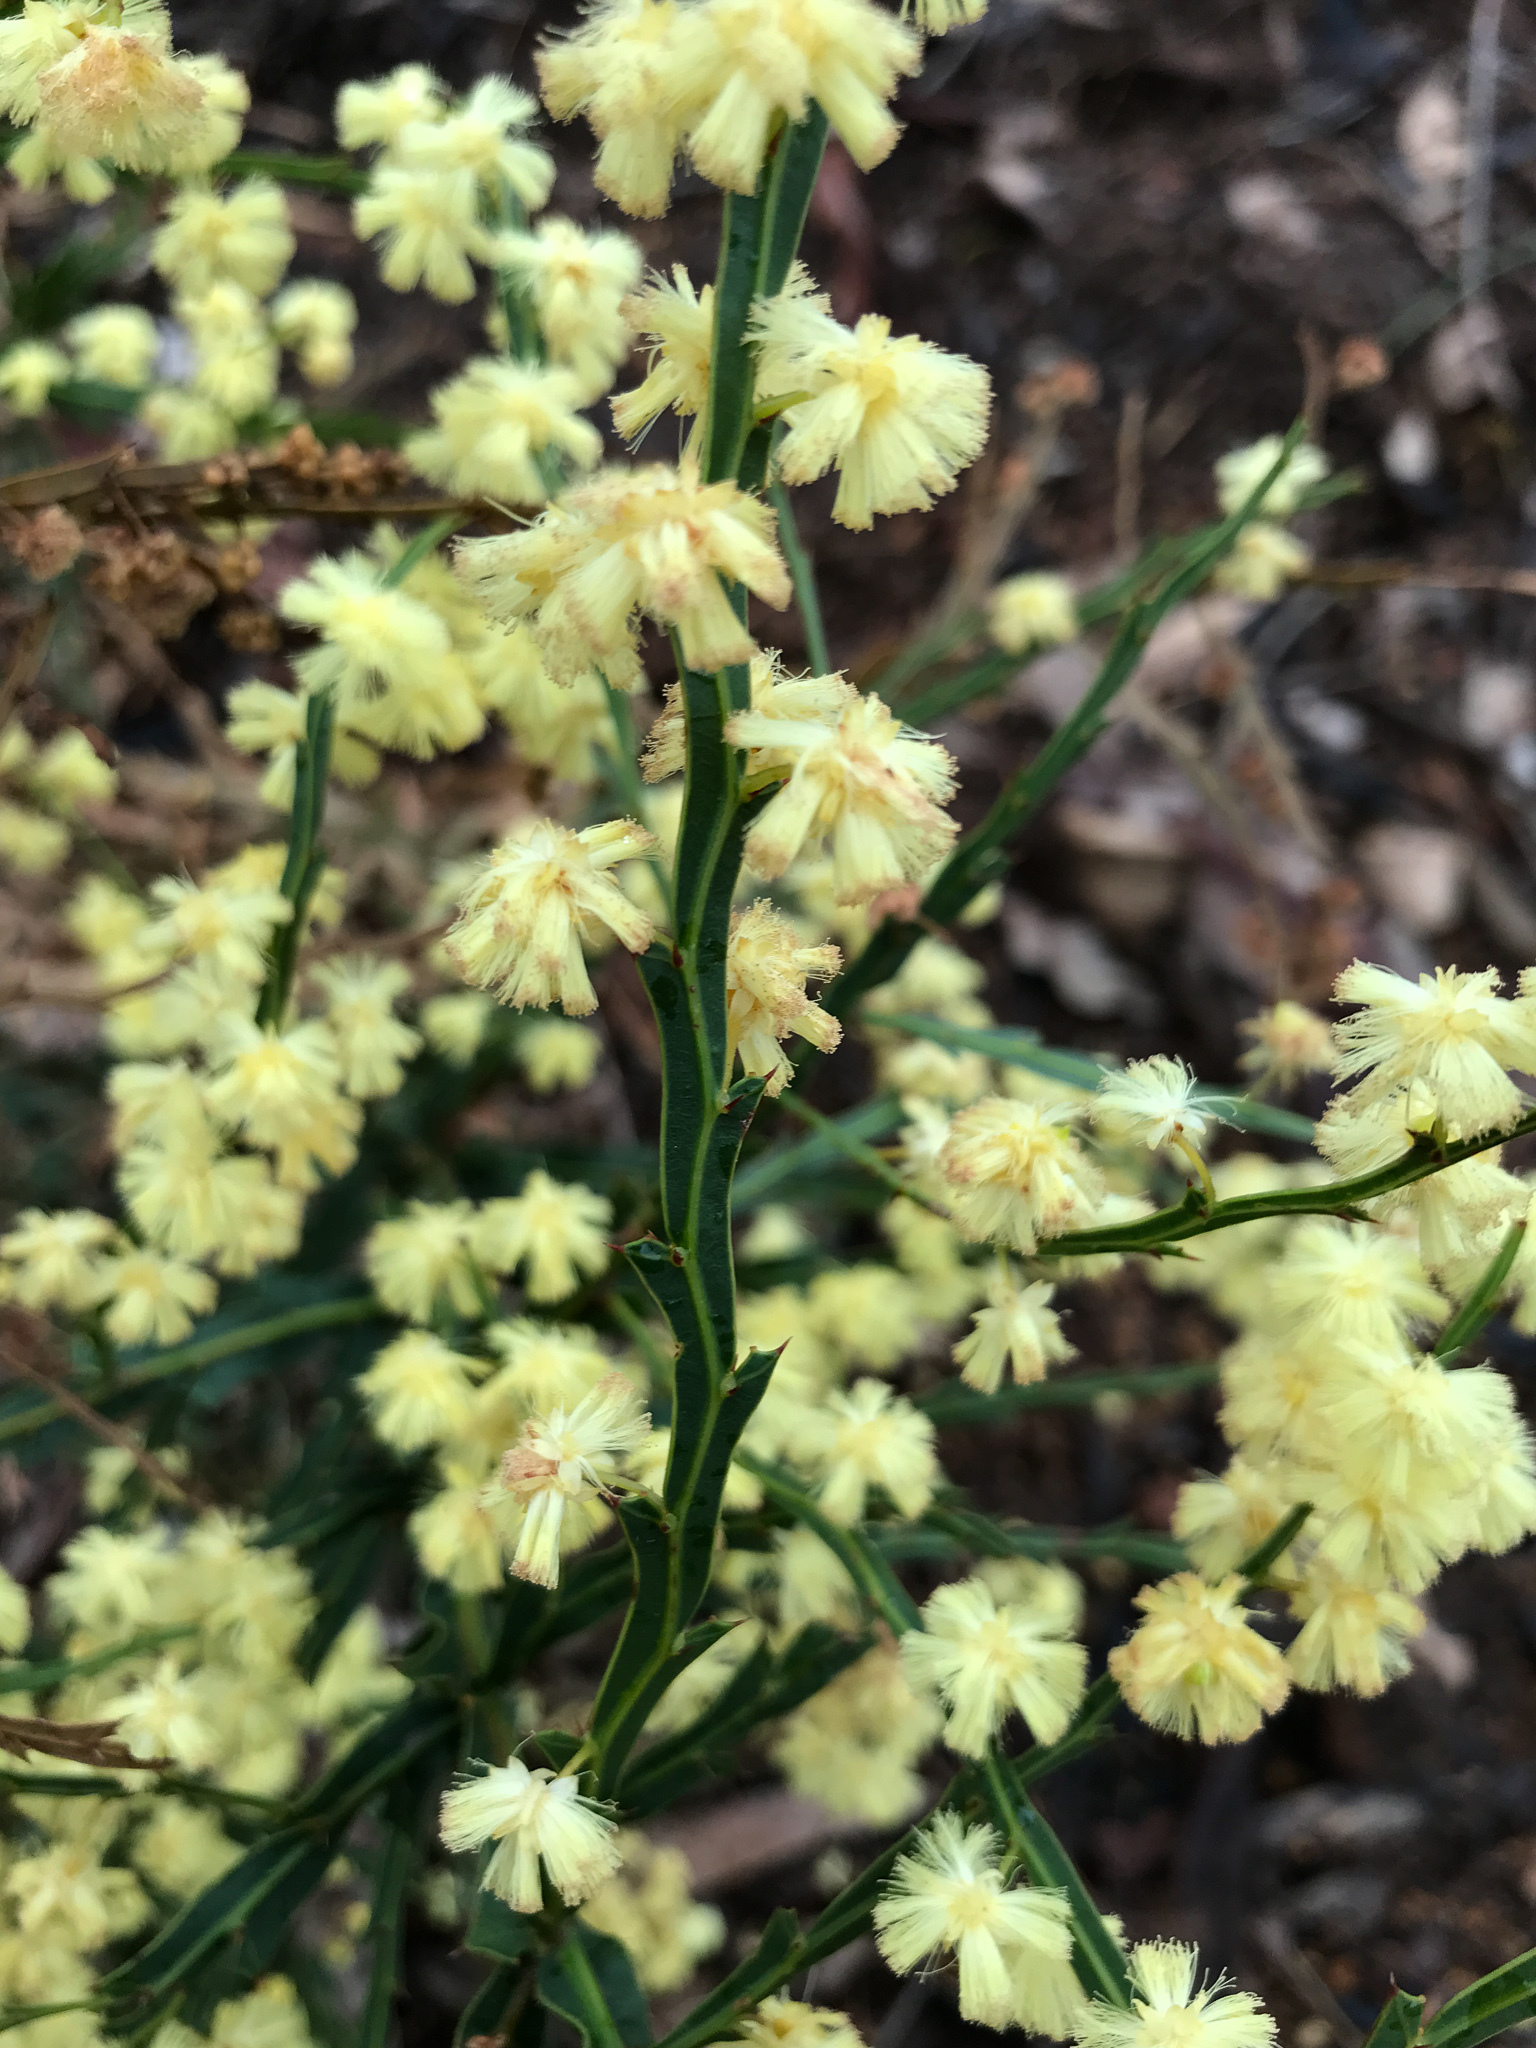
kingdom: Plantae
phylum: Tracheophyta
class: Magnoliopsida
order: Fabales
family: Fabaceae
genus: Acacia
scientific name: Acacia alata
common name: Winged wattle
